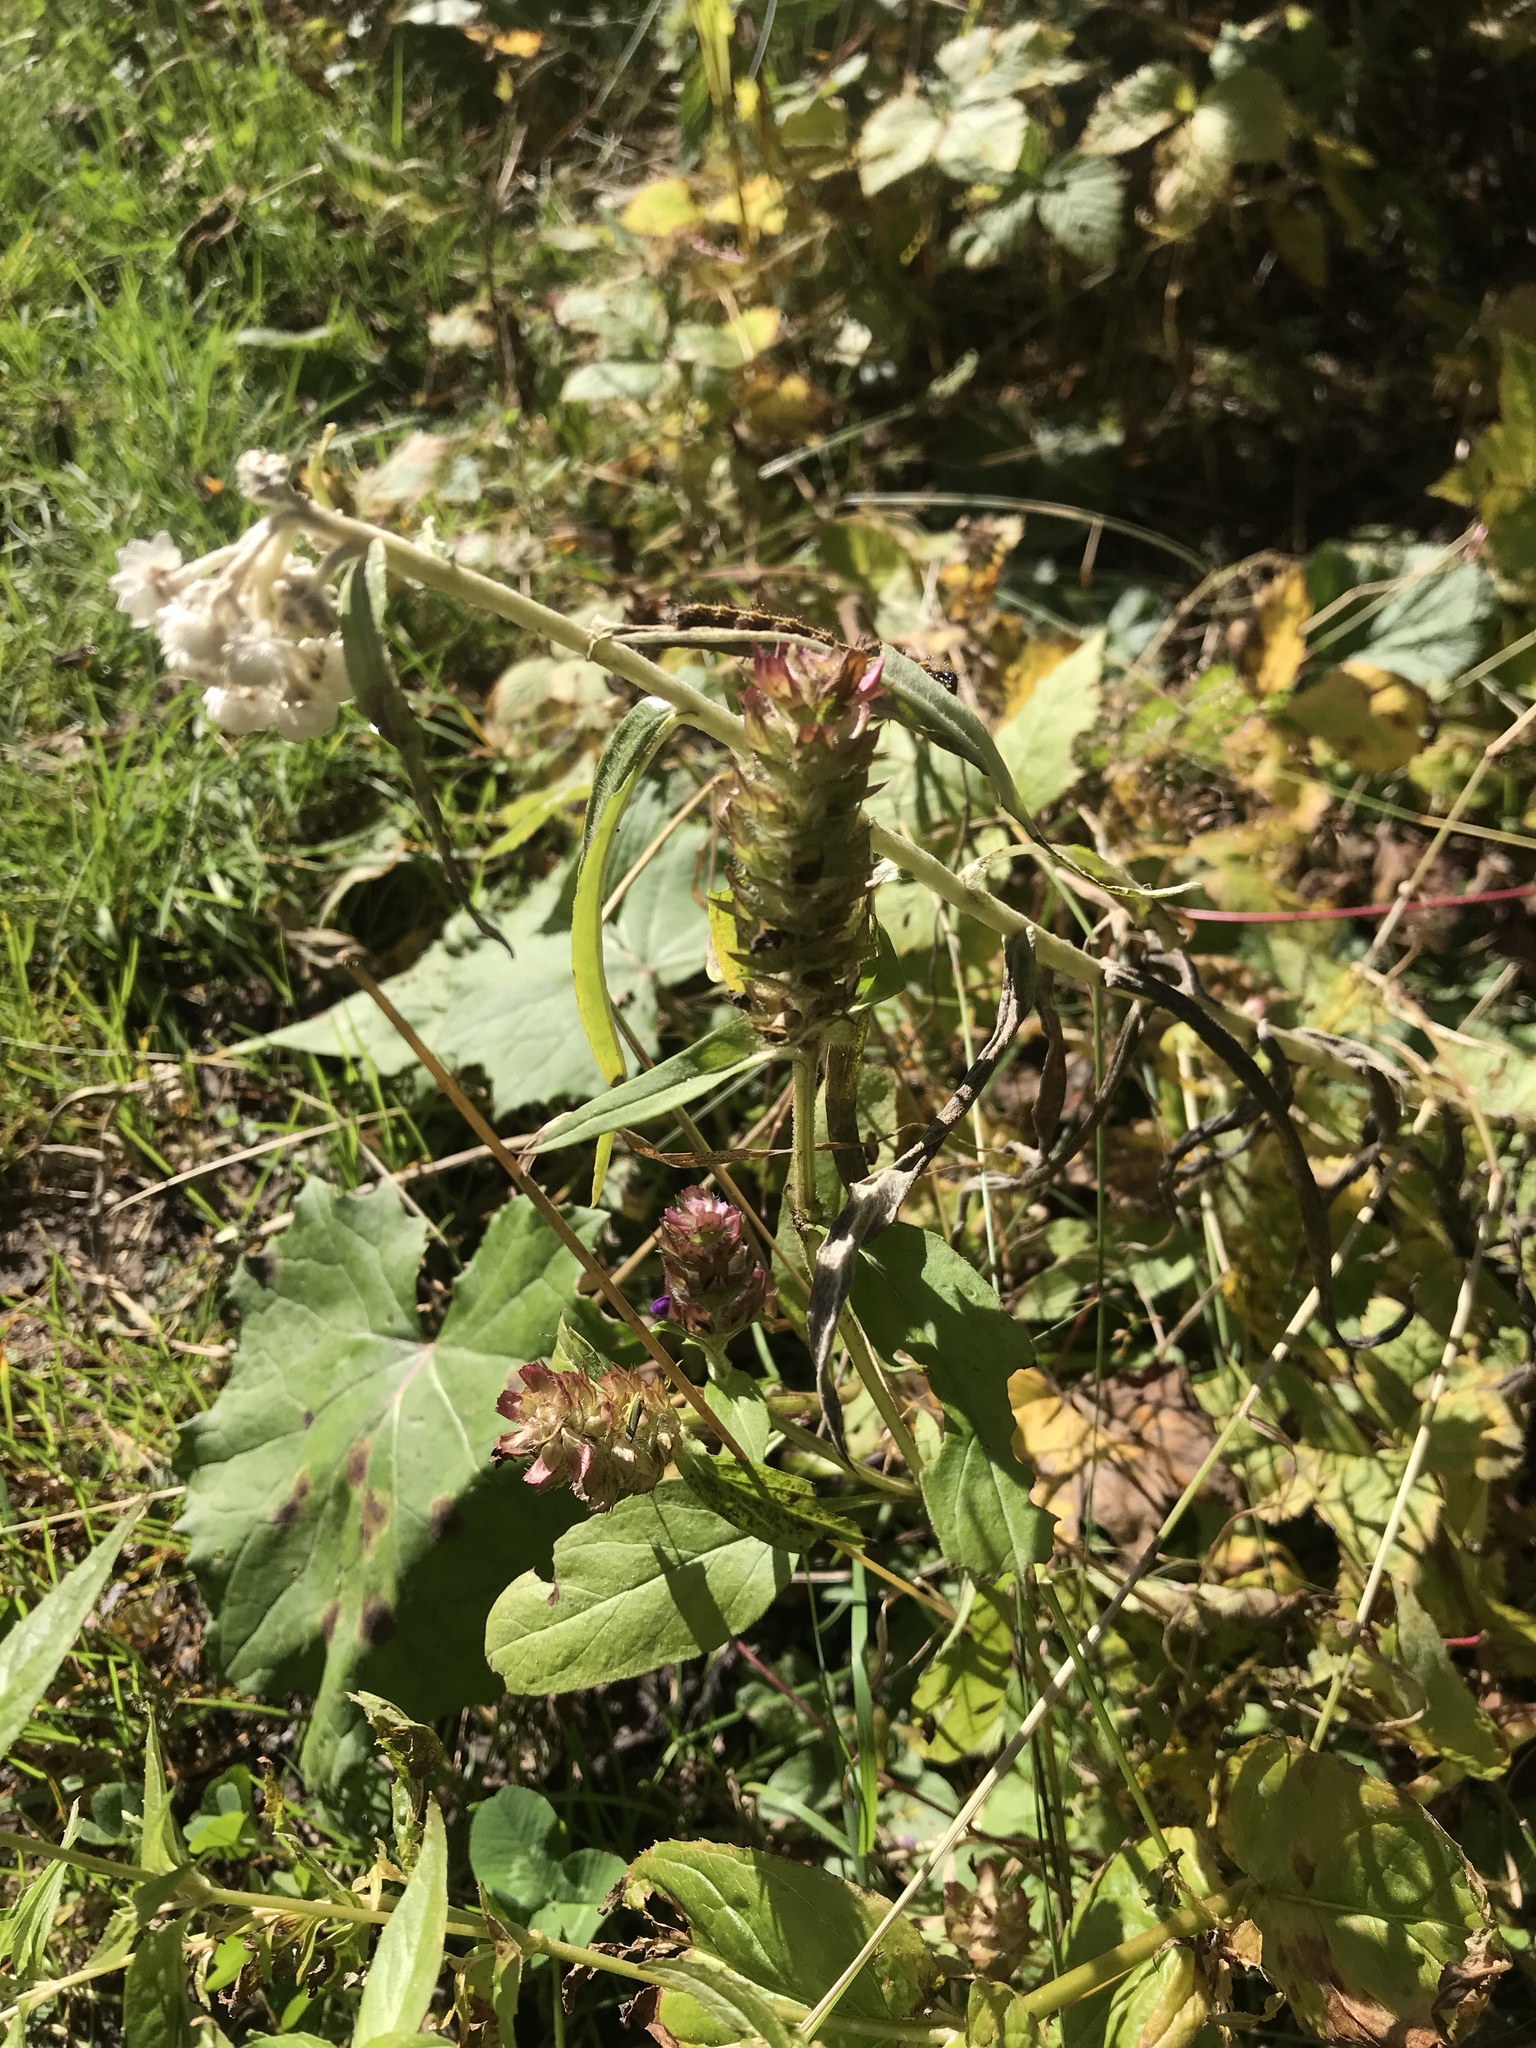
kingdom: Plantae
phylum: Tracheophyta
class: Magnoliopsida
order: Lamiales
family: Lamiaceae
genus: Prunella
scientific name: Prunella vulgaris
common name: Heal-all
